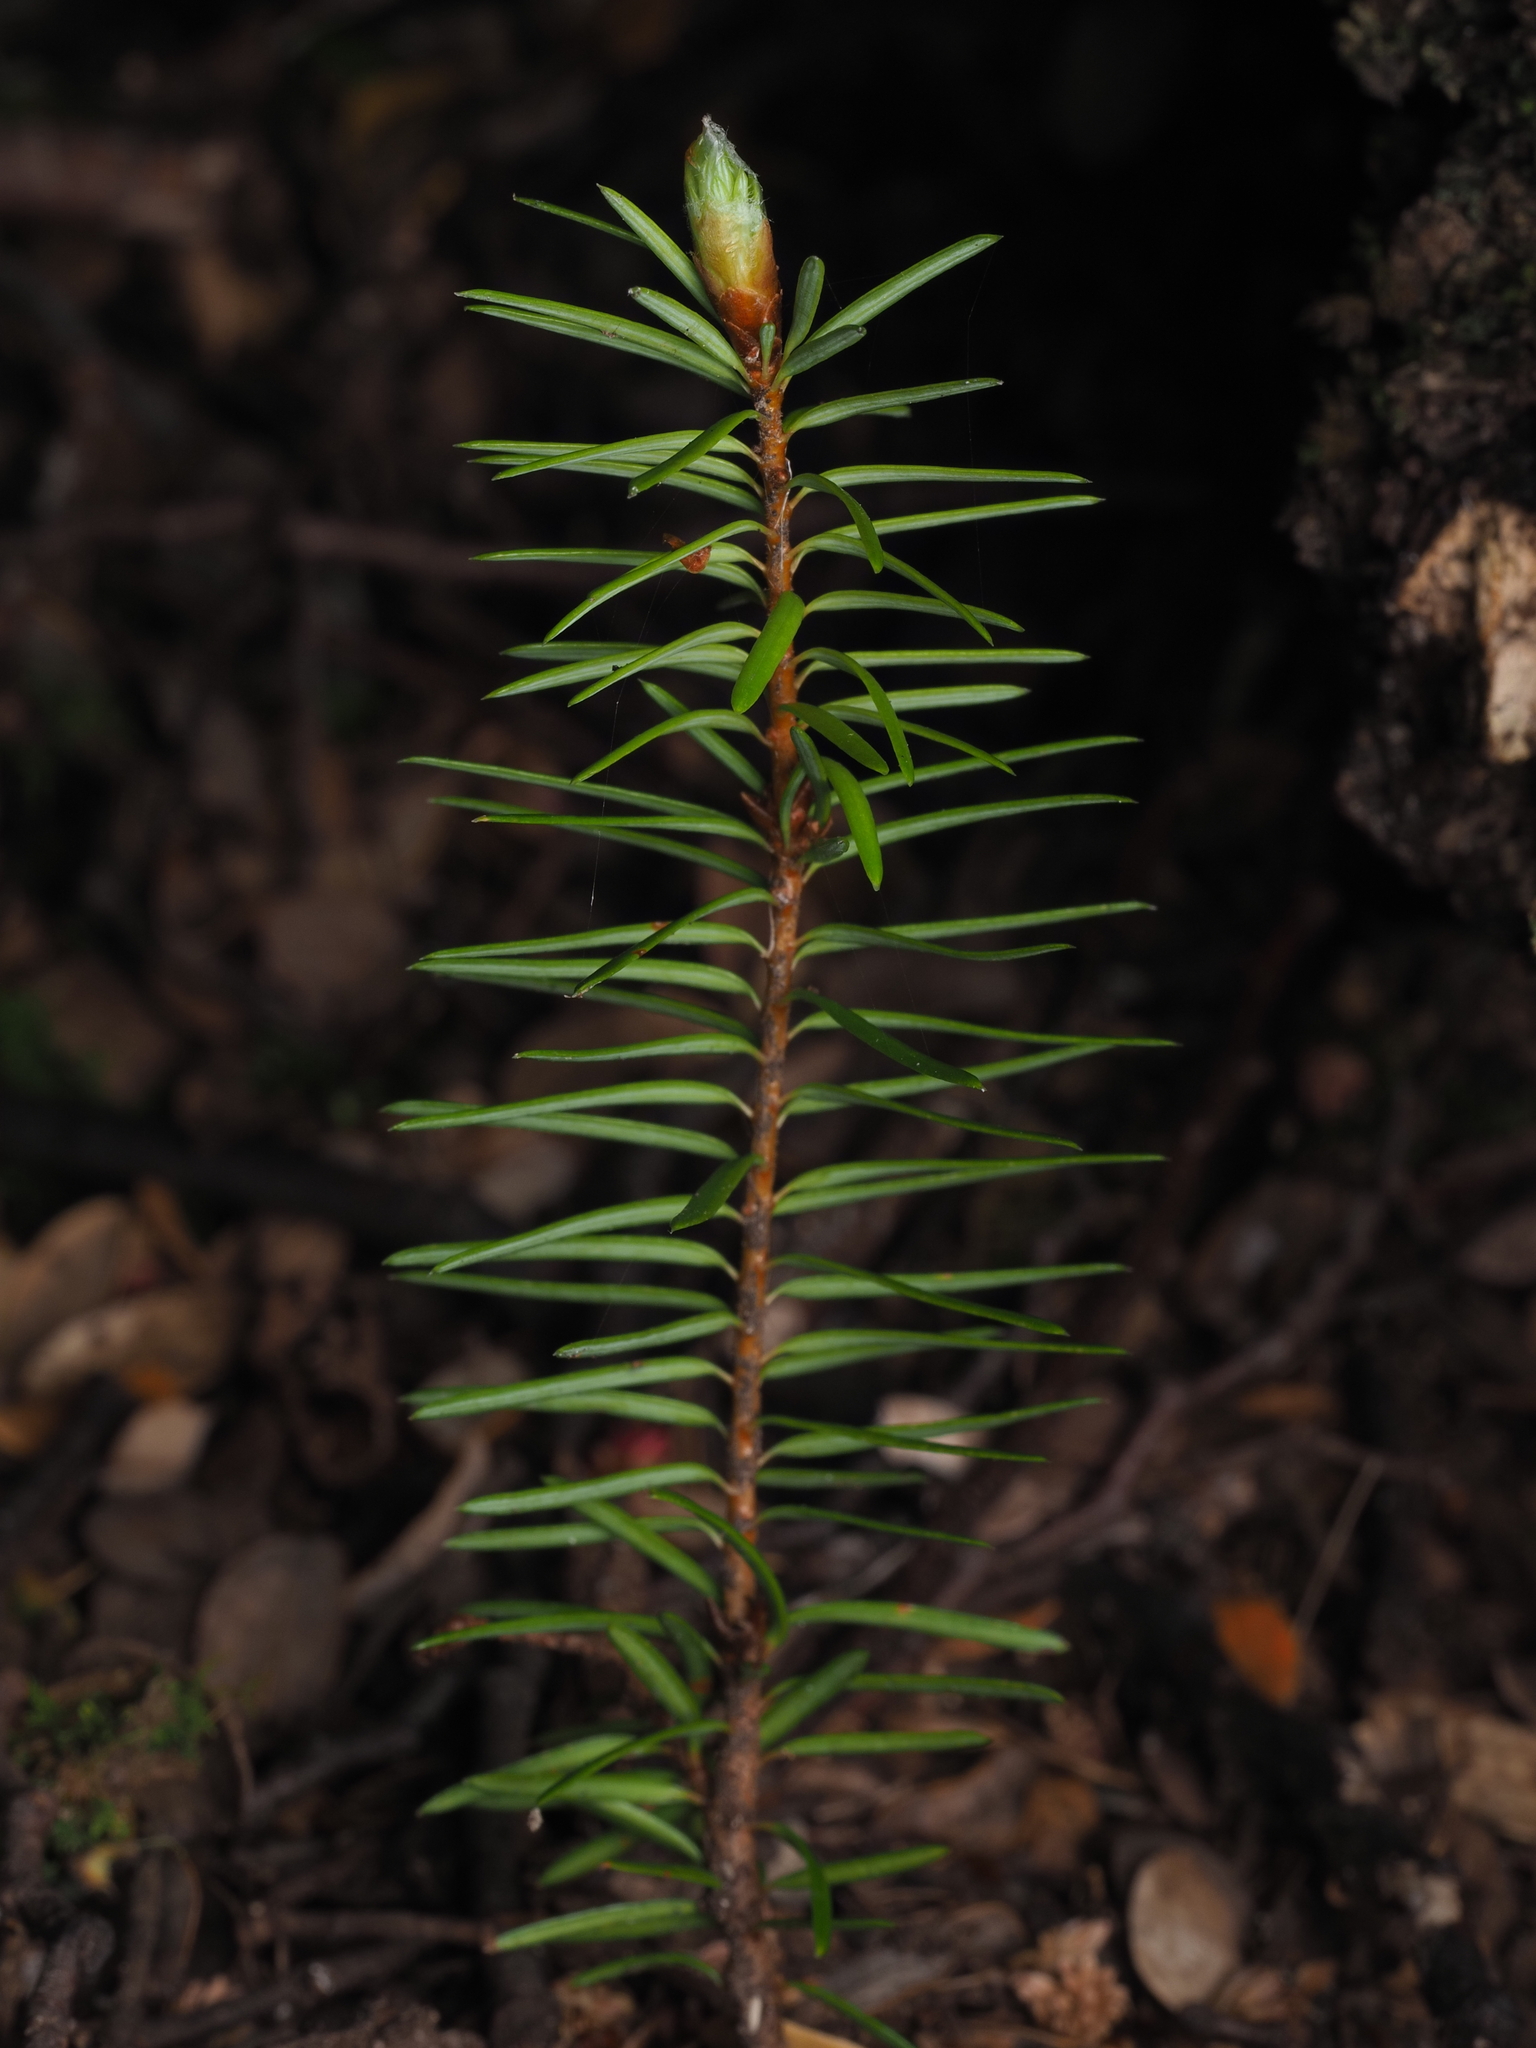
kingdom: Plantae
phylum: Tracheophyta
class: Pinopsida
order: Pinales
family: Pinaceae
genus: Pseudotsuga
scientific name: Pseudotsuga menziesii
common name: Douglas fir
